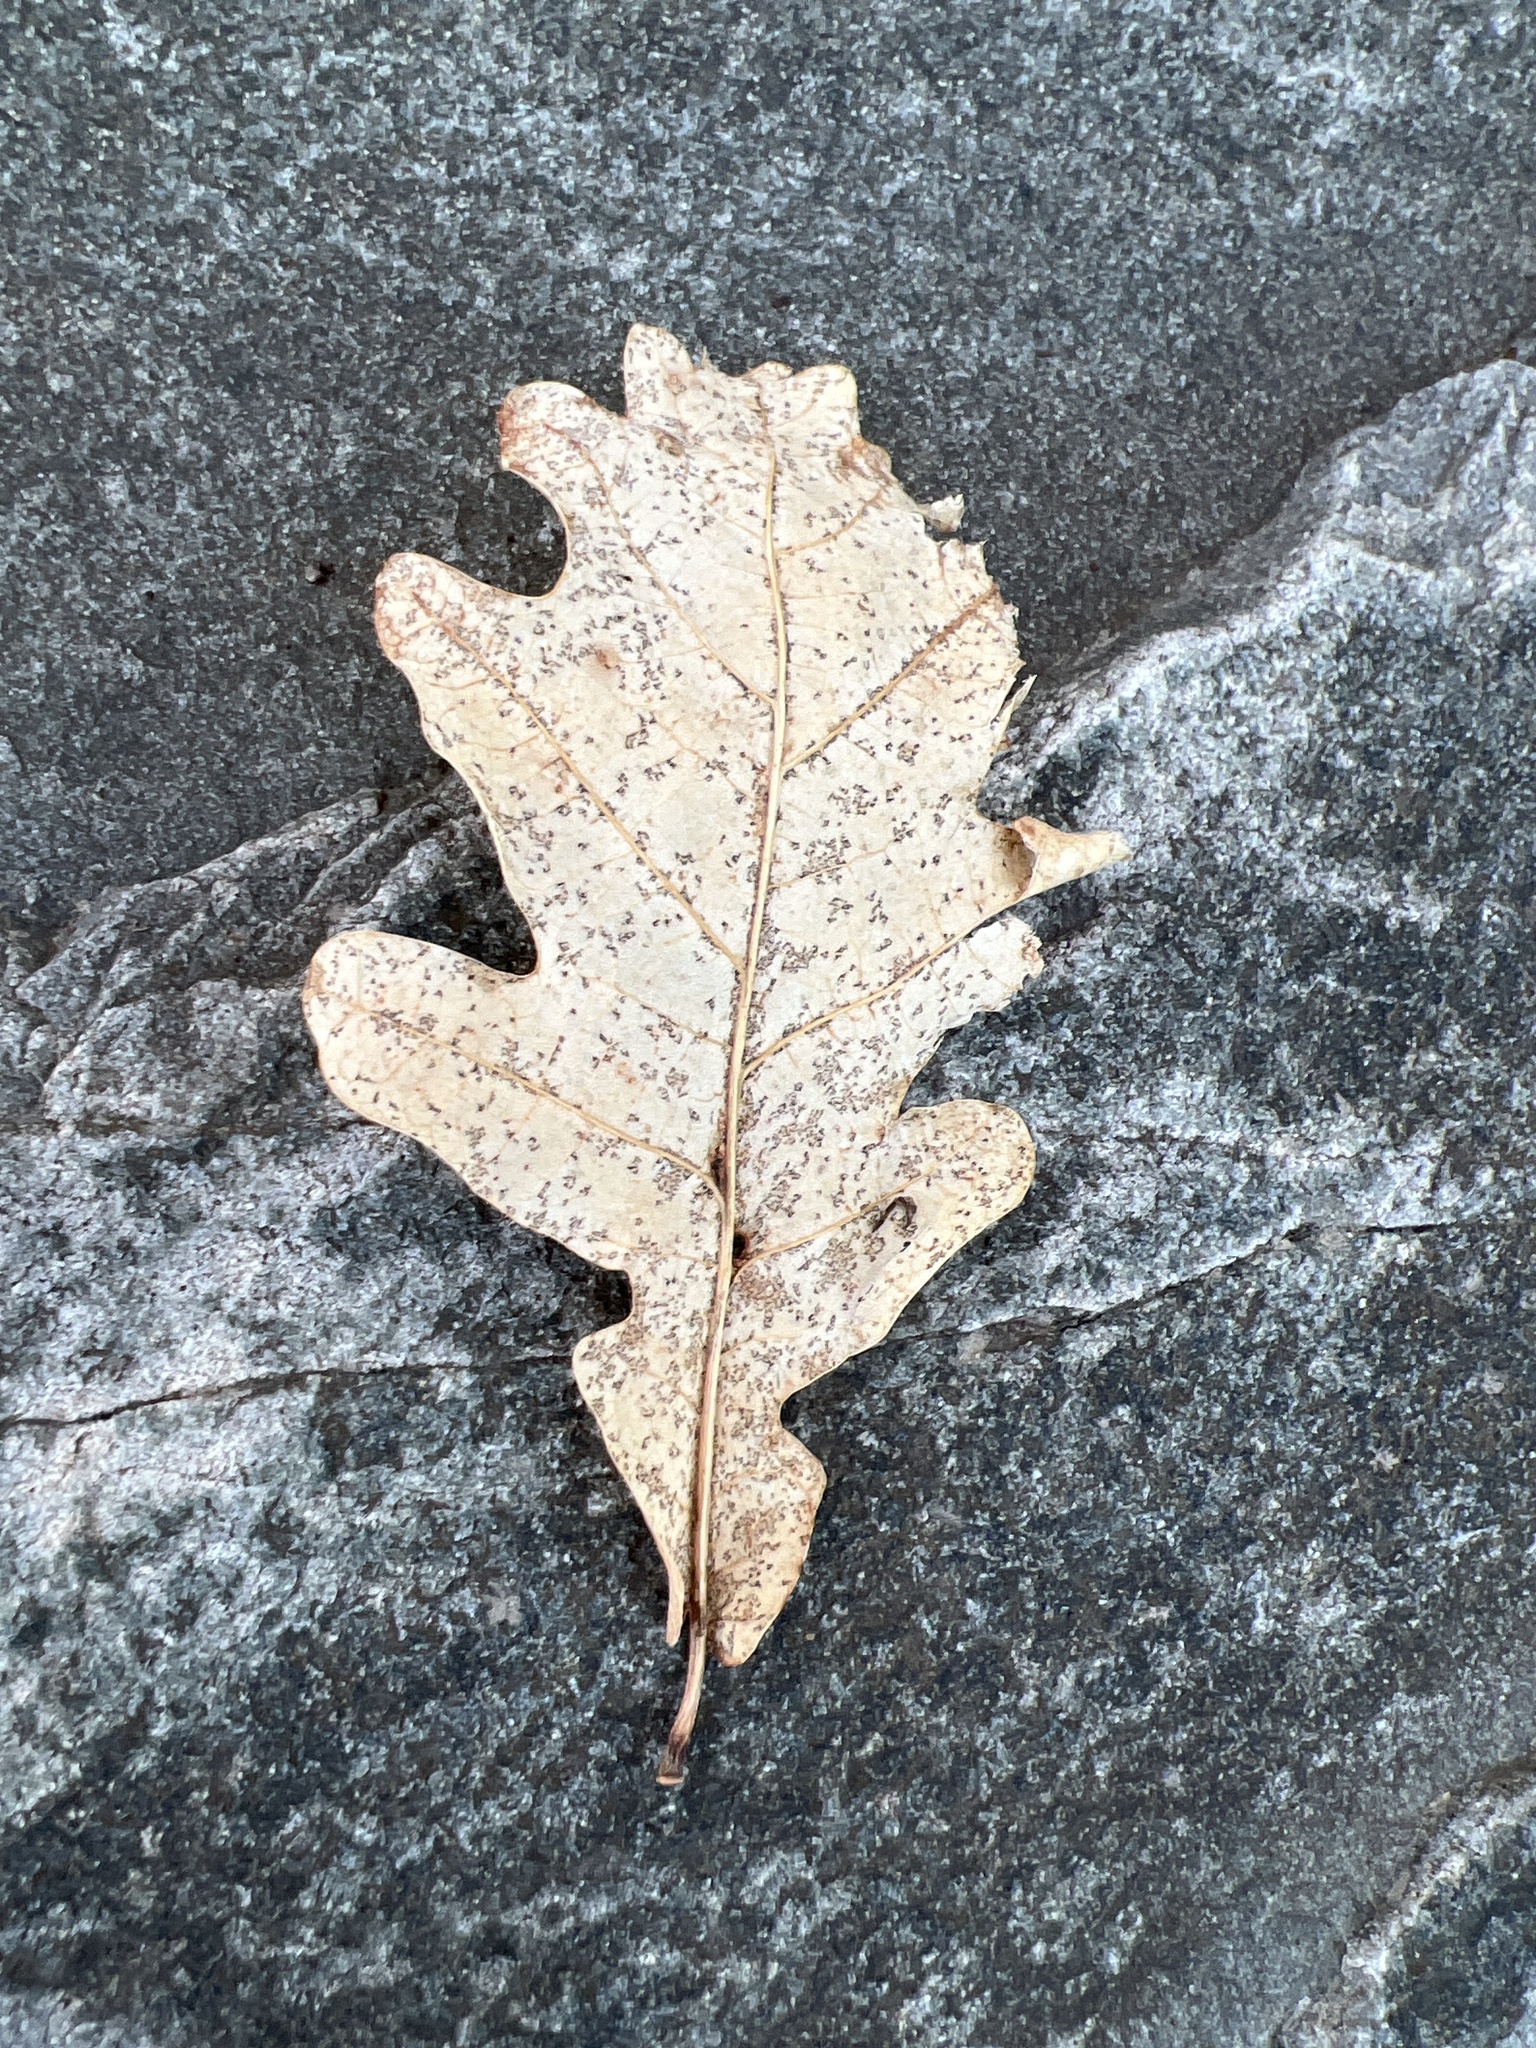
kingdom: Plantae
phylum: Tracheophyta
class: Magnoliopsida
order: Fagales
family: Fagaceae
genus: Quercus
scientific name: Quercus robur
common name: Pedunculate oak
